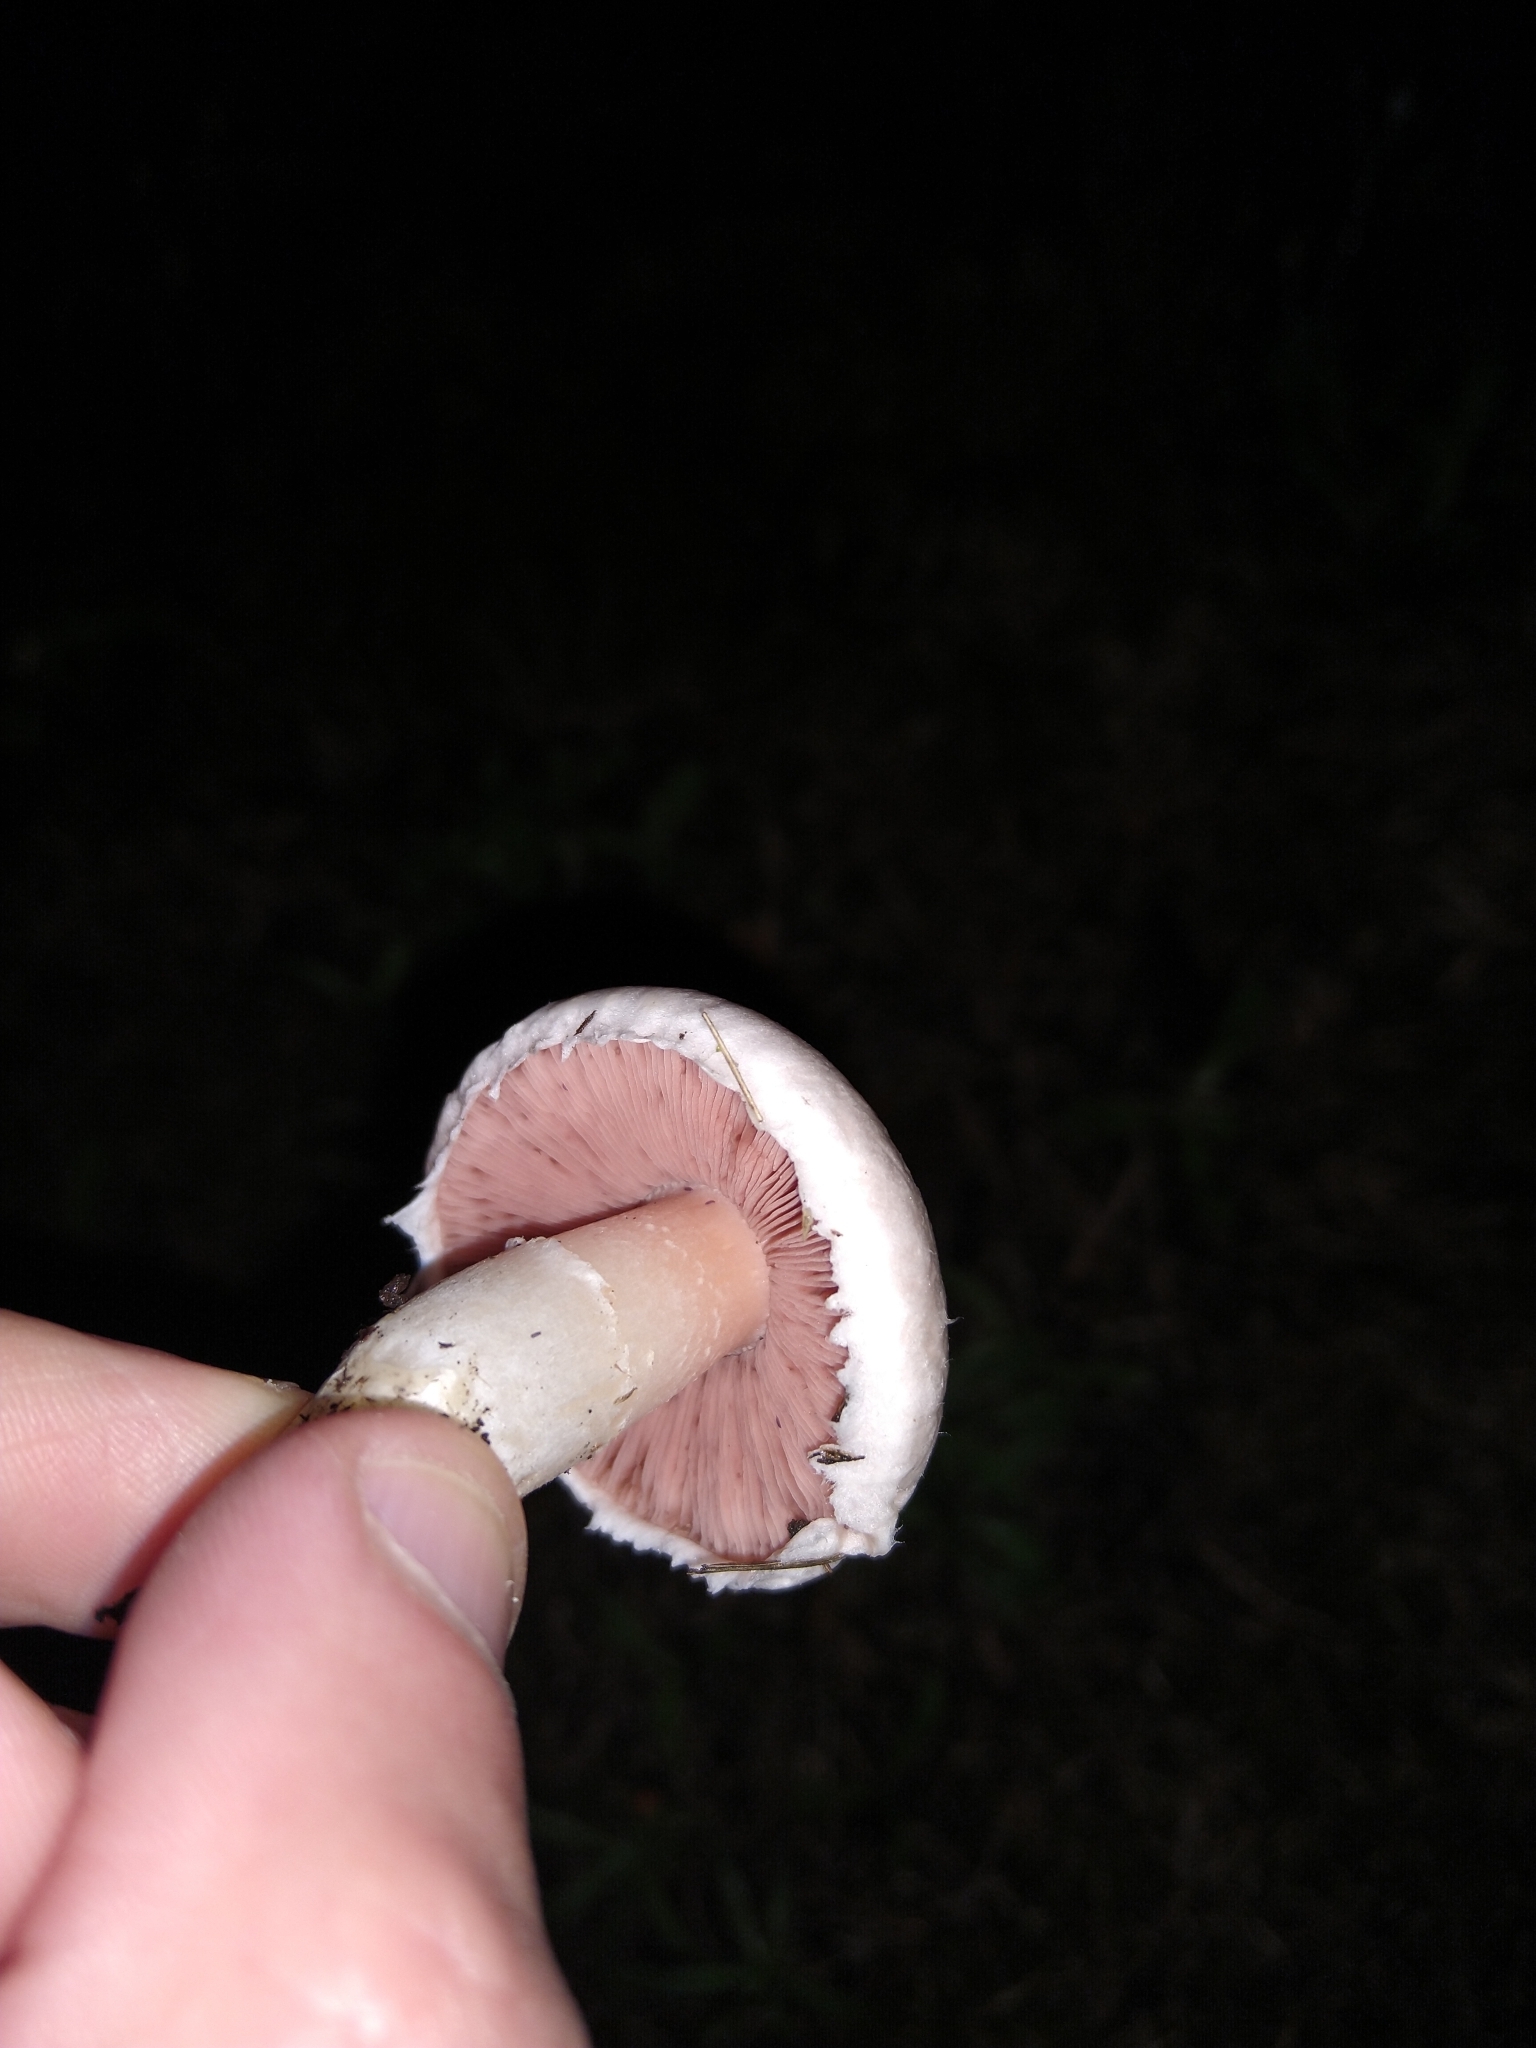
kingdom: Fungi
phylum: Basidiomycota
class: Agaricomycetes
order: Agaricales
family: Agaricaceae
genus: Agaricus
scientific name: Agaricus campestris
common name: Field mushroom
